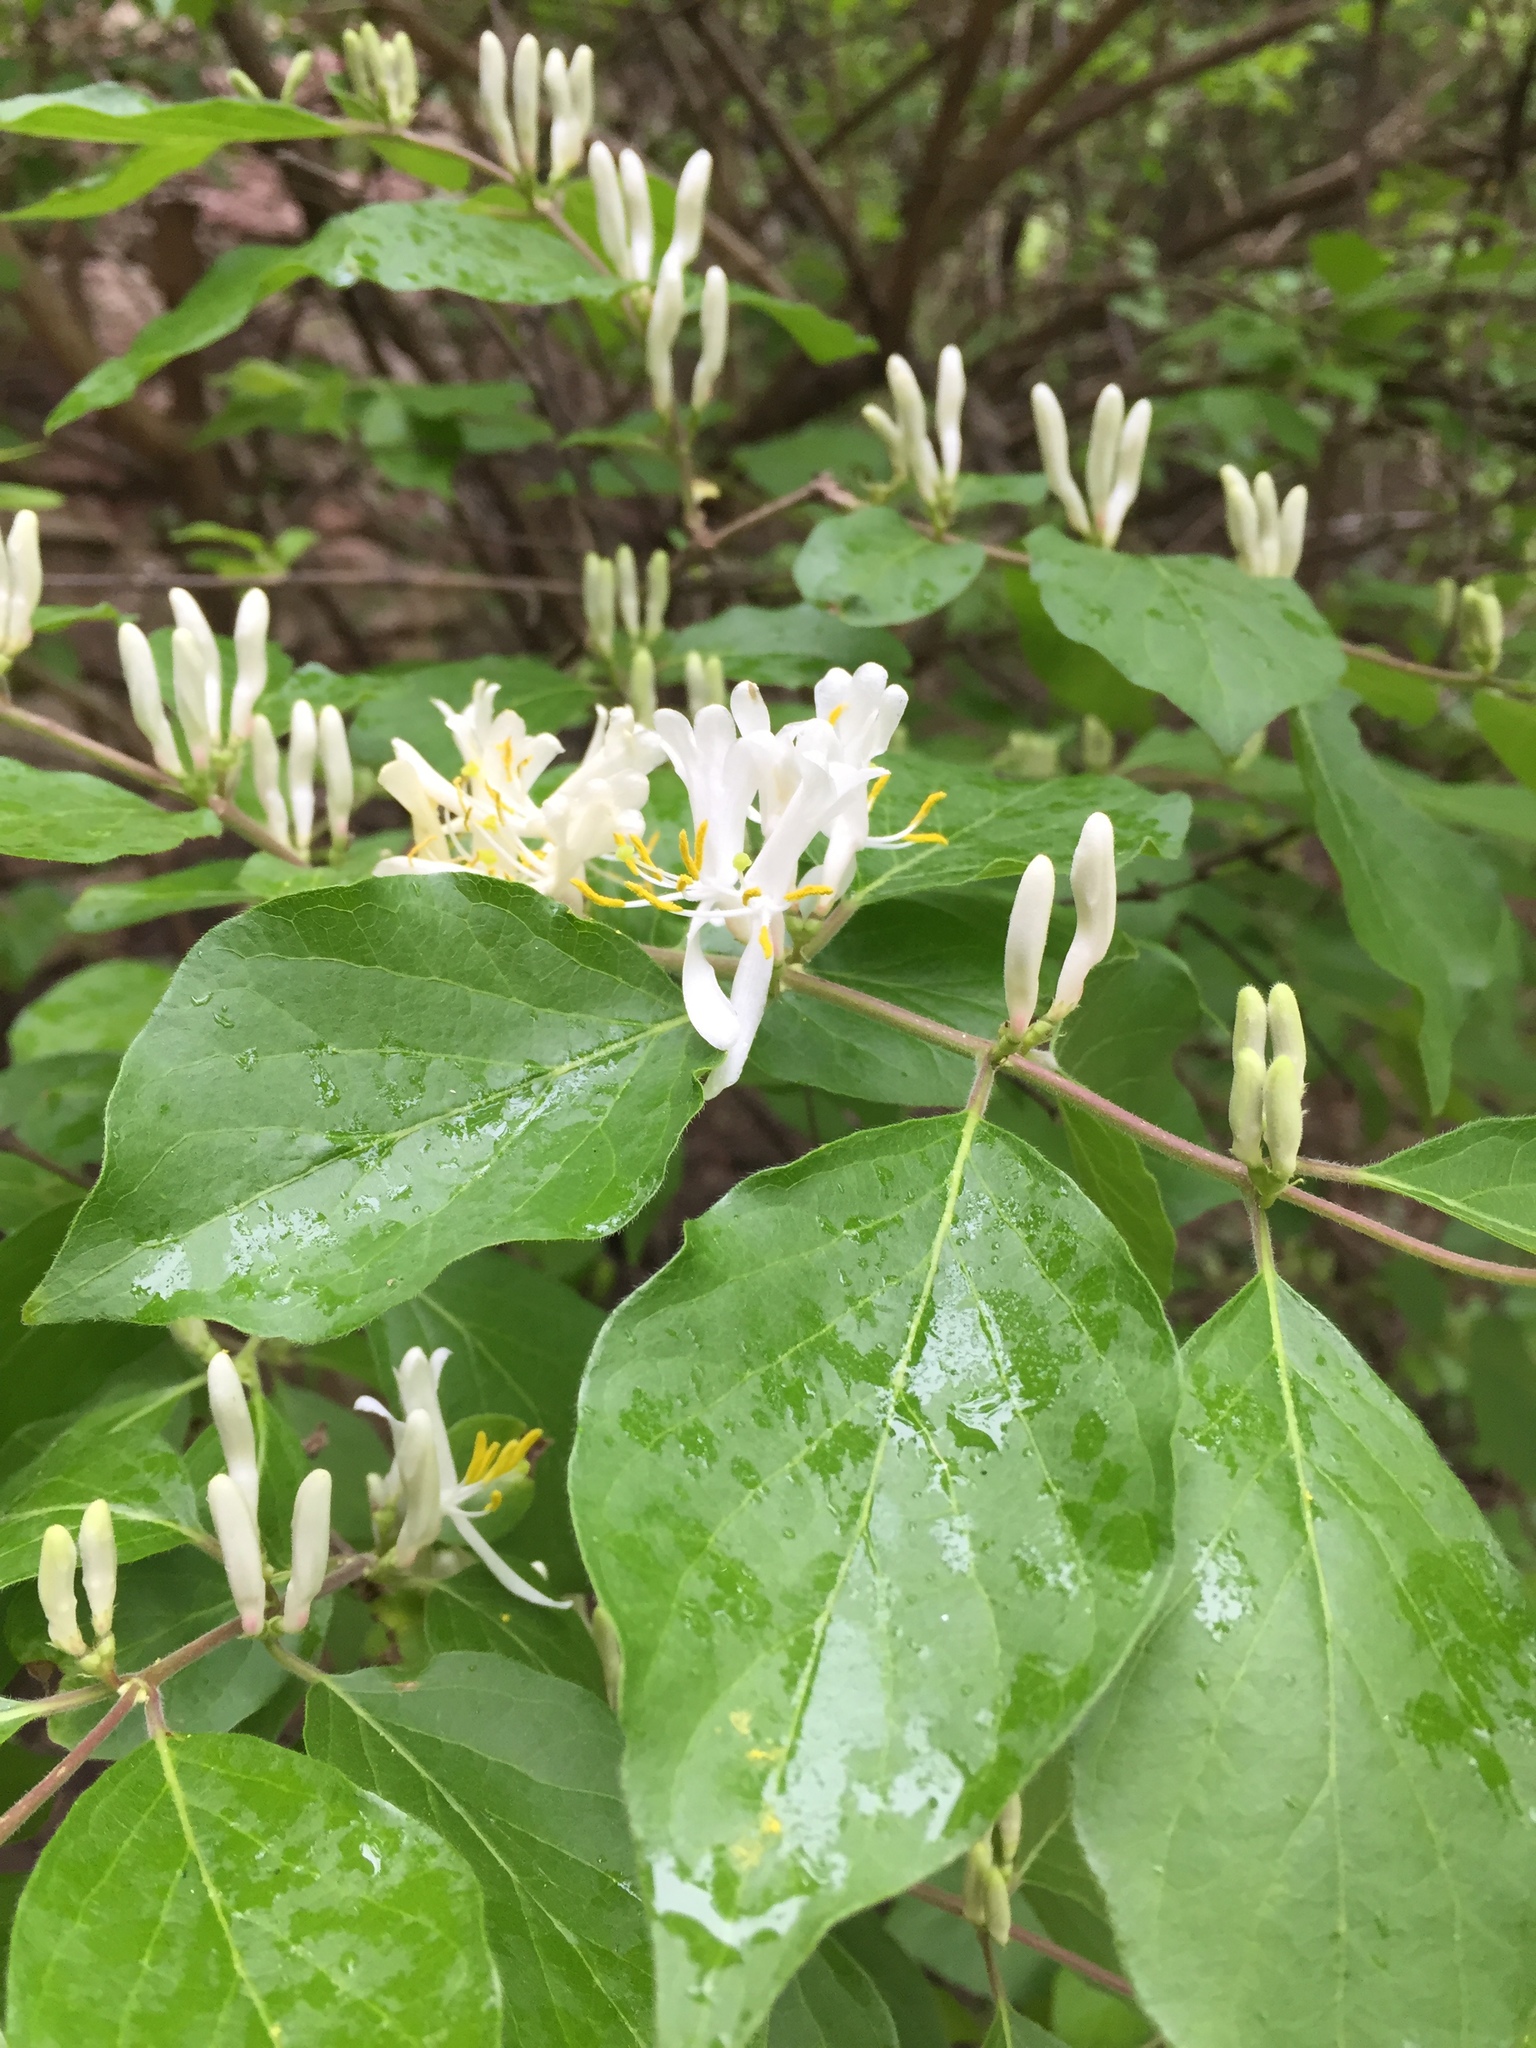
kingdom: Plantae
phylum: Tracheophyta
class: Magnoliopsida
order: Dipsacales
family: Caprifoliaceae
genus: Lonicera
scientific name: Lonicera maackii
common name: Amur honeysuckle
